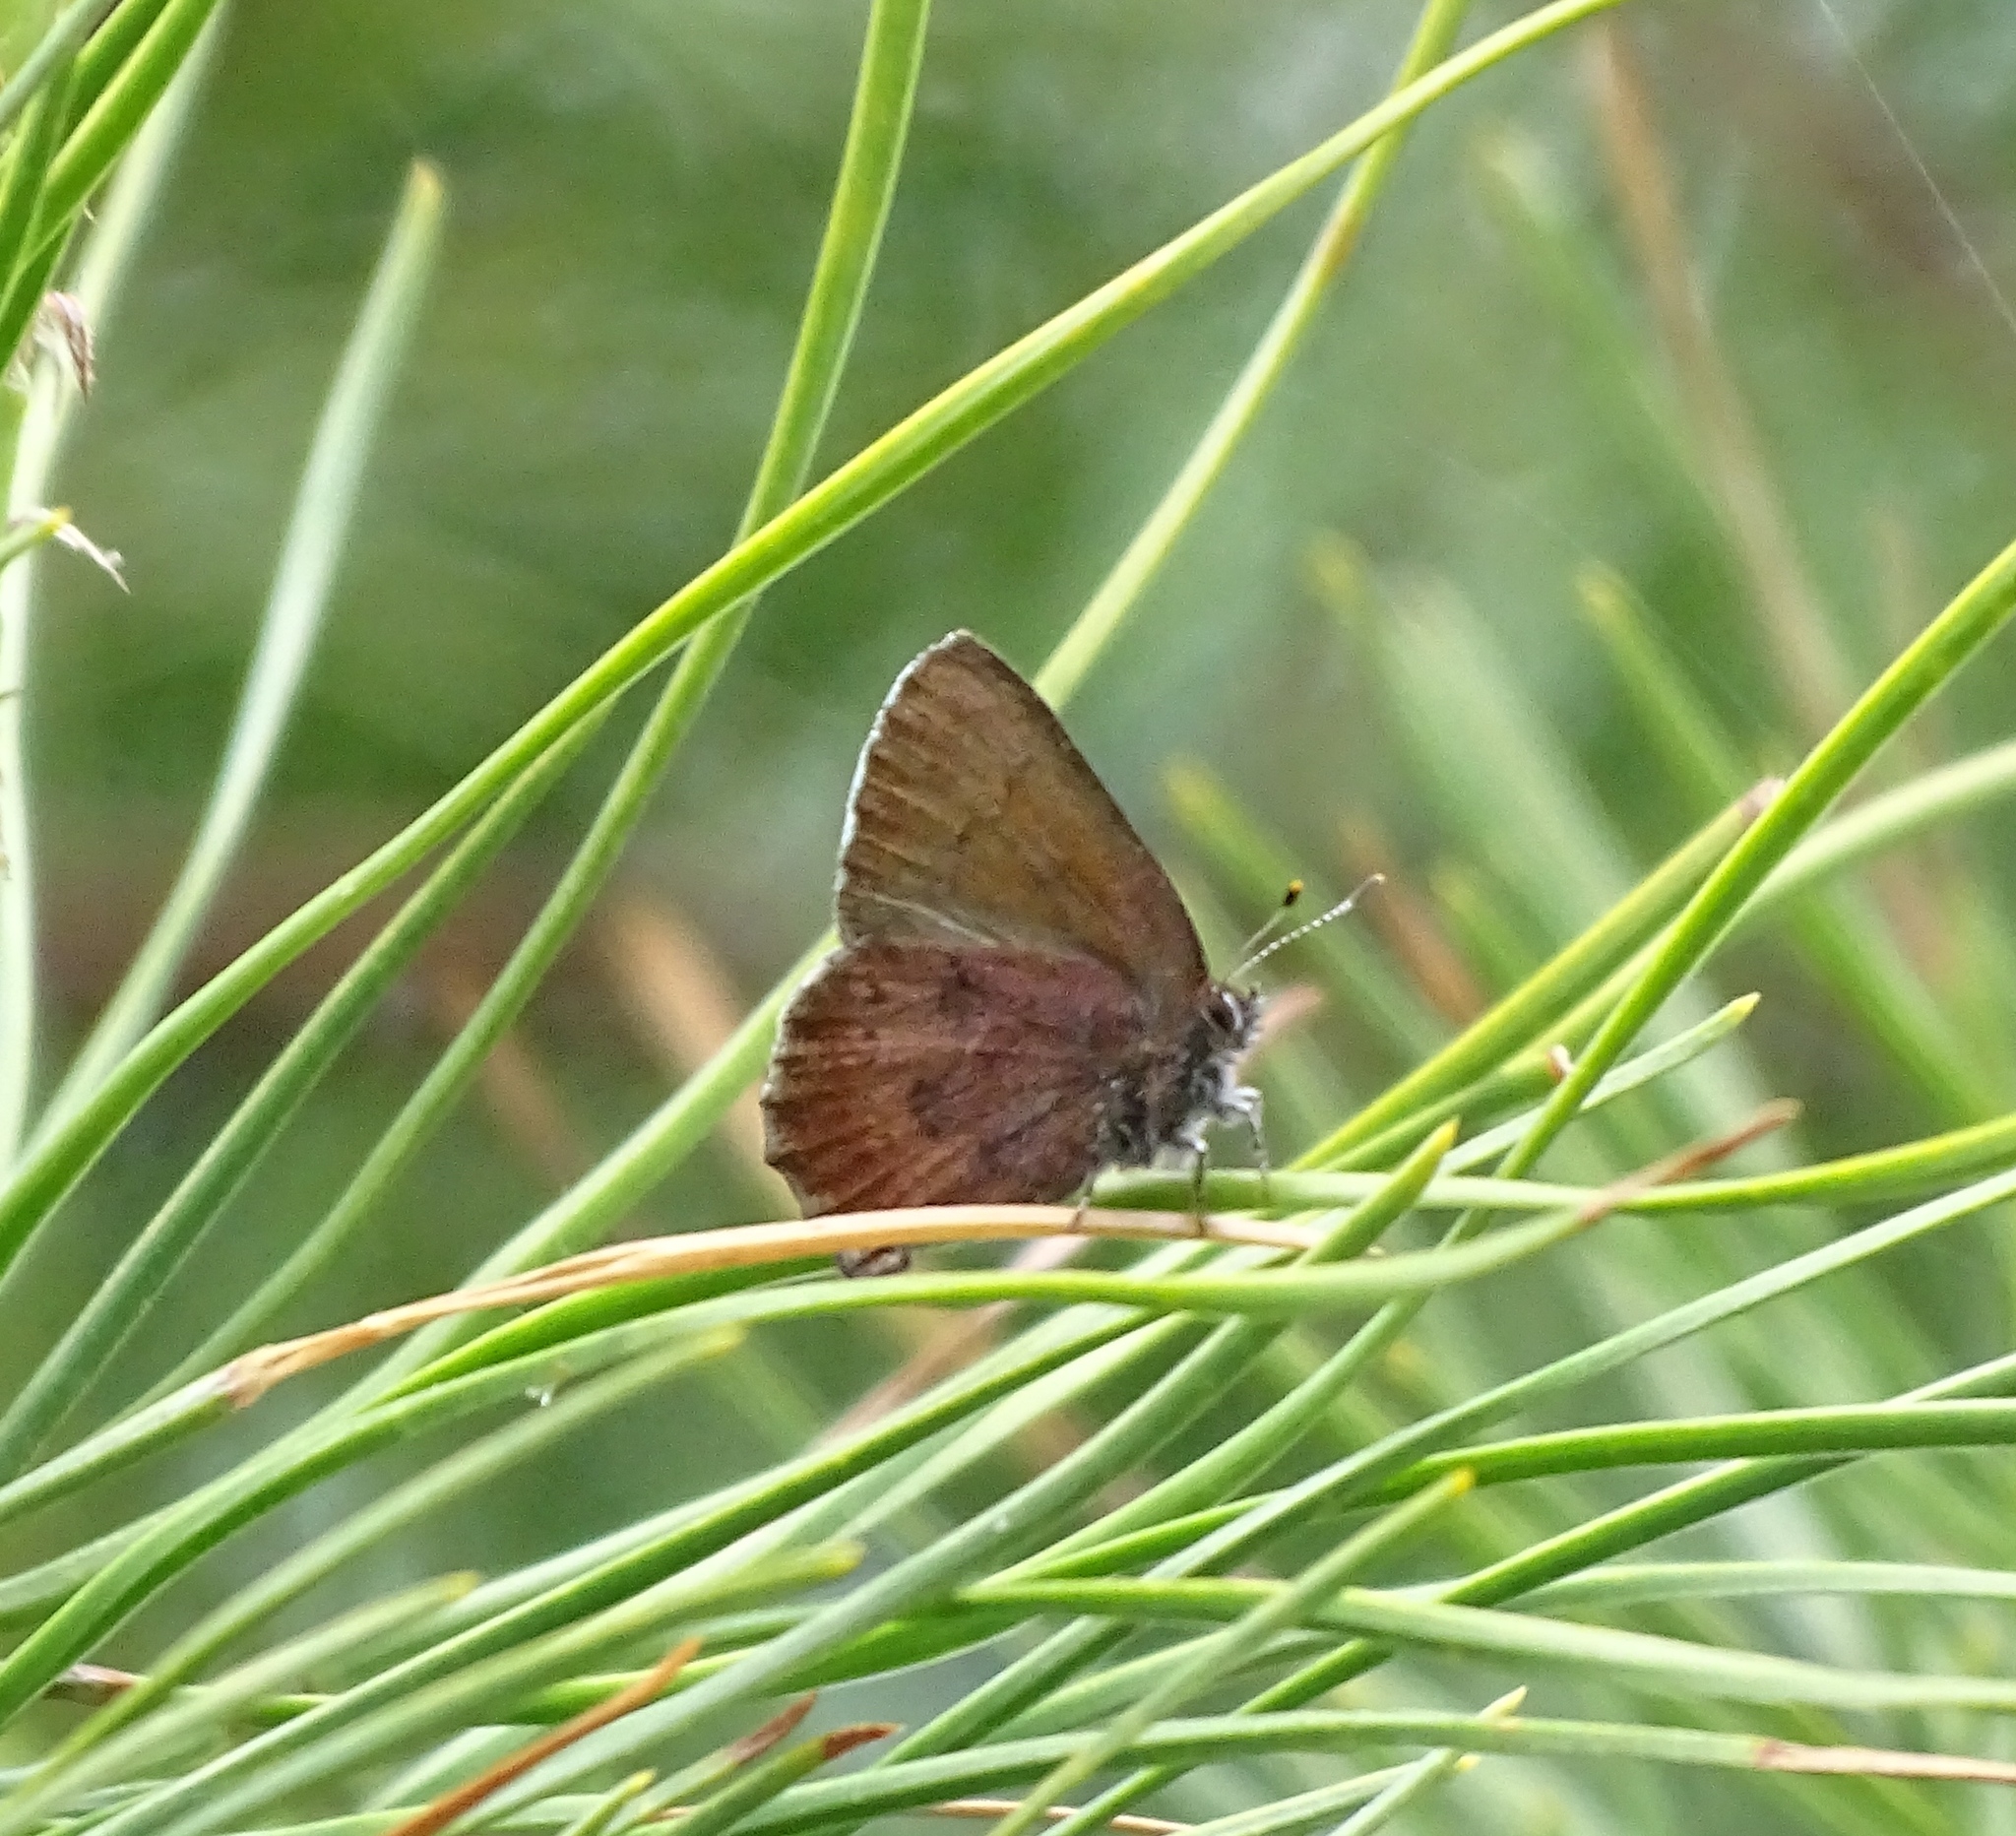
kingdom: Animalia
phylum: Arthropoda
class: Insecta
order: Lepidoptera
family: Lycaenidae
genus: Incisalia
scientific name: Incisalia irioides
